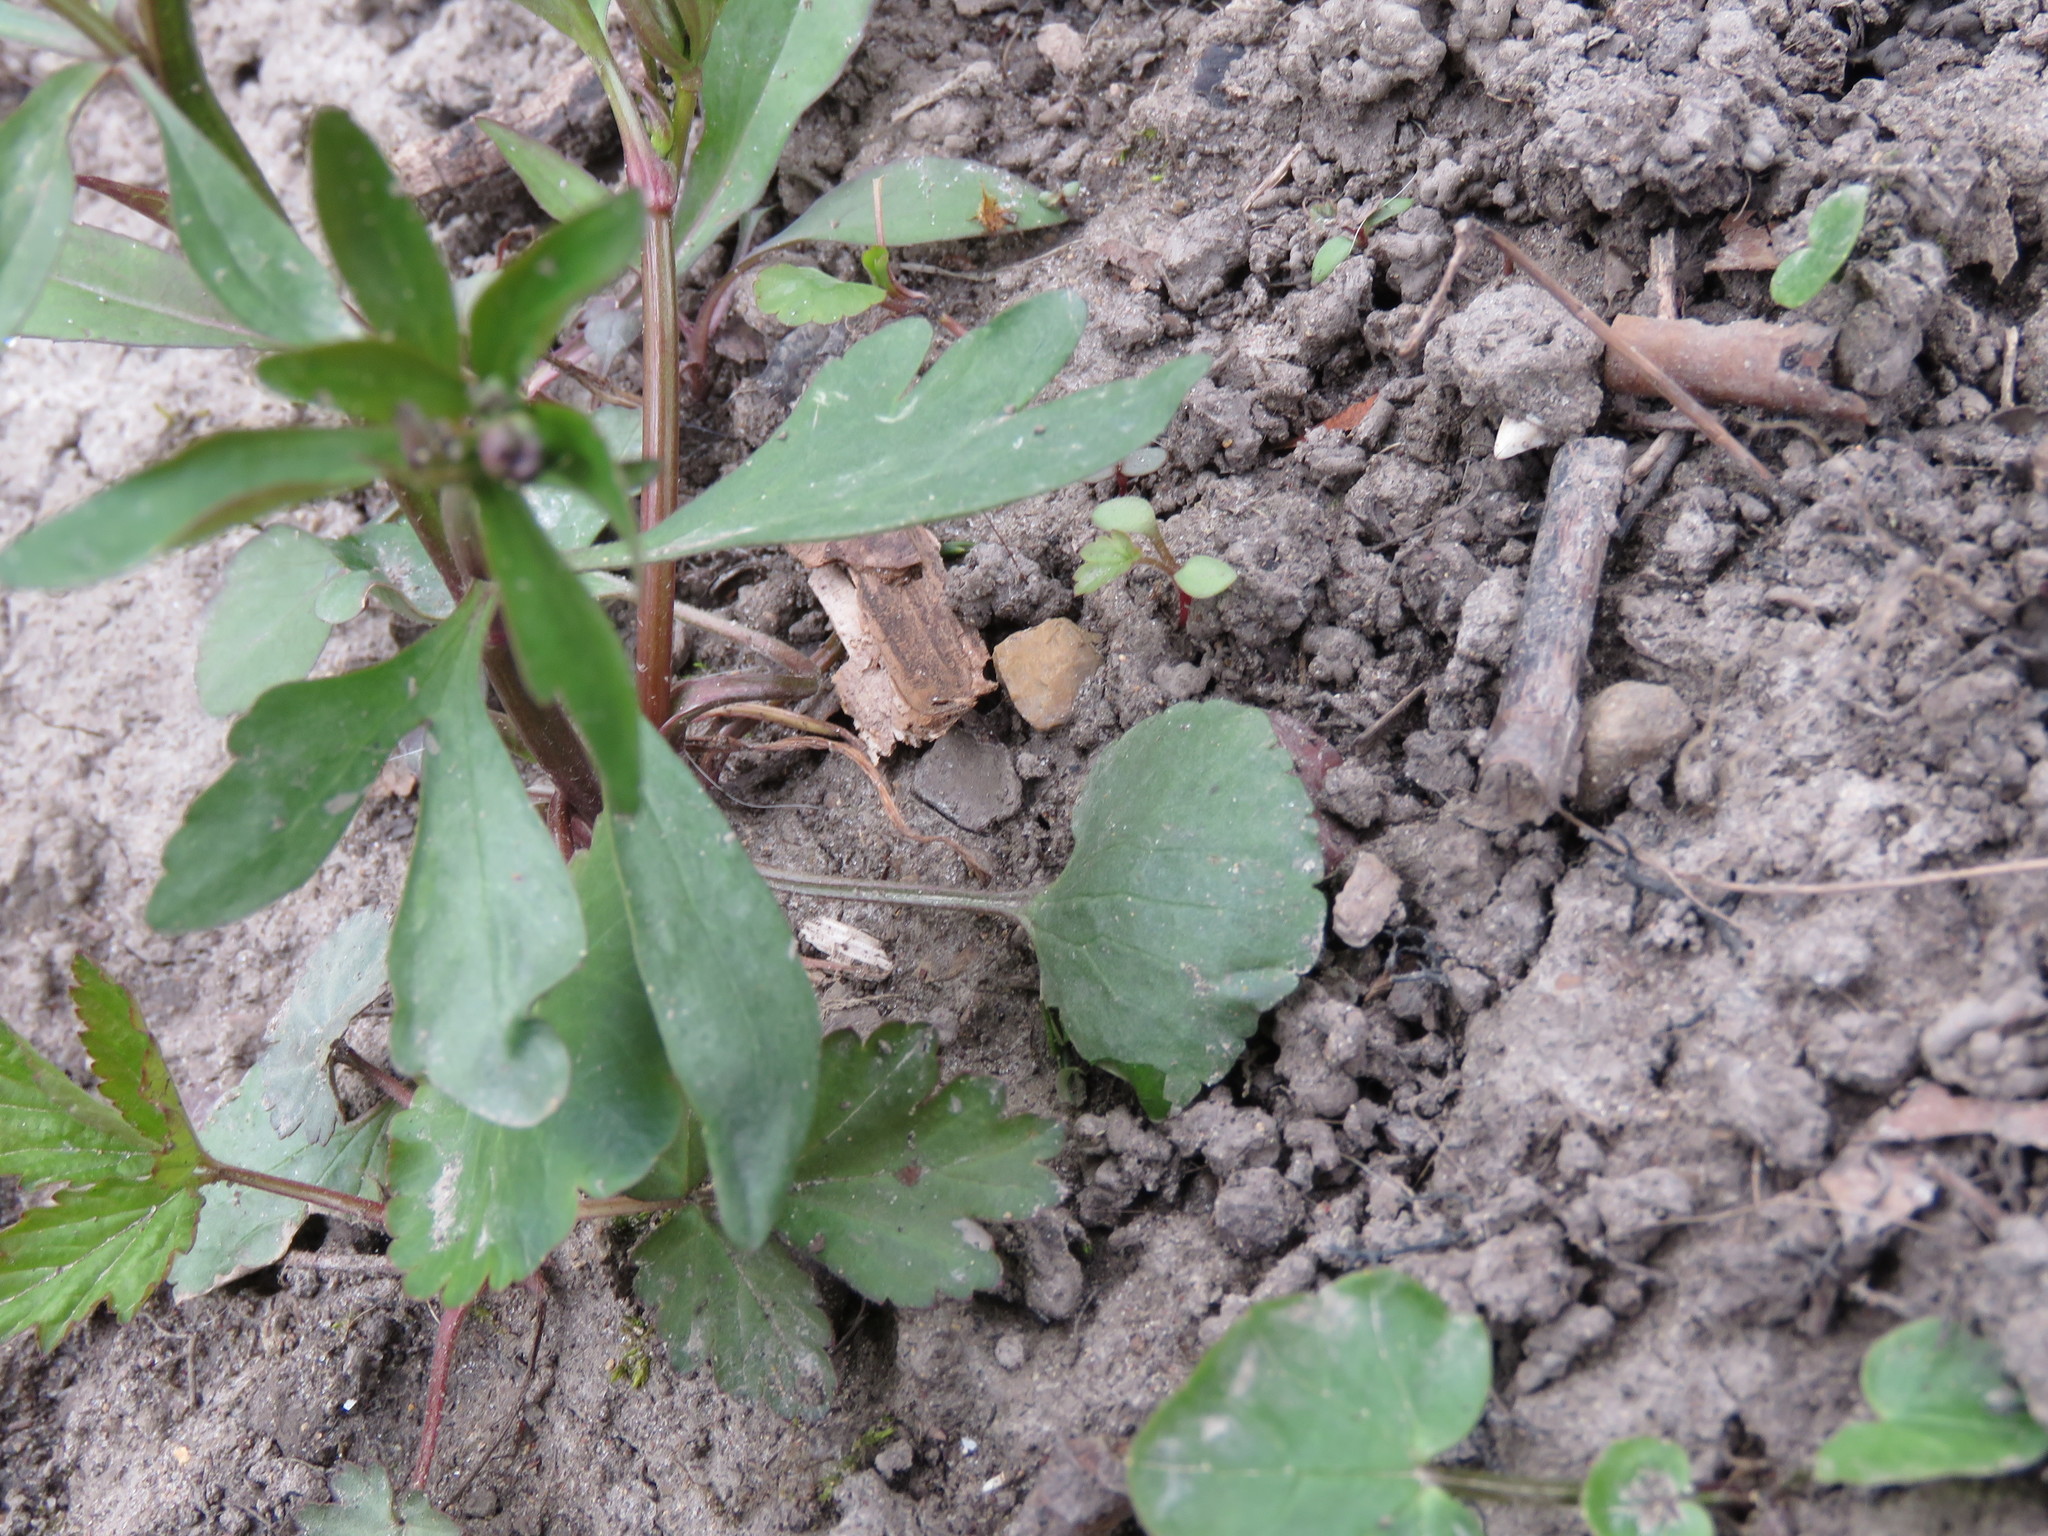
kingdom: Plantae
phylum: Tracheophyta
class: Magnoliopsida
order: Ranunculales
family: Ranunculaceae
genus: Ranunculus
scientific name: Ranunculus abortivus
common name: Early wood buttercup
